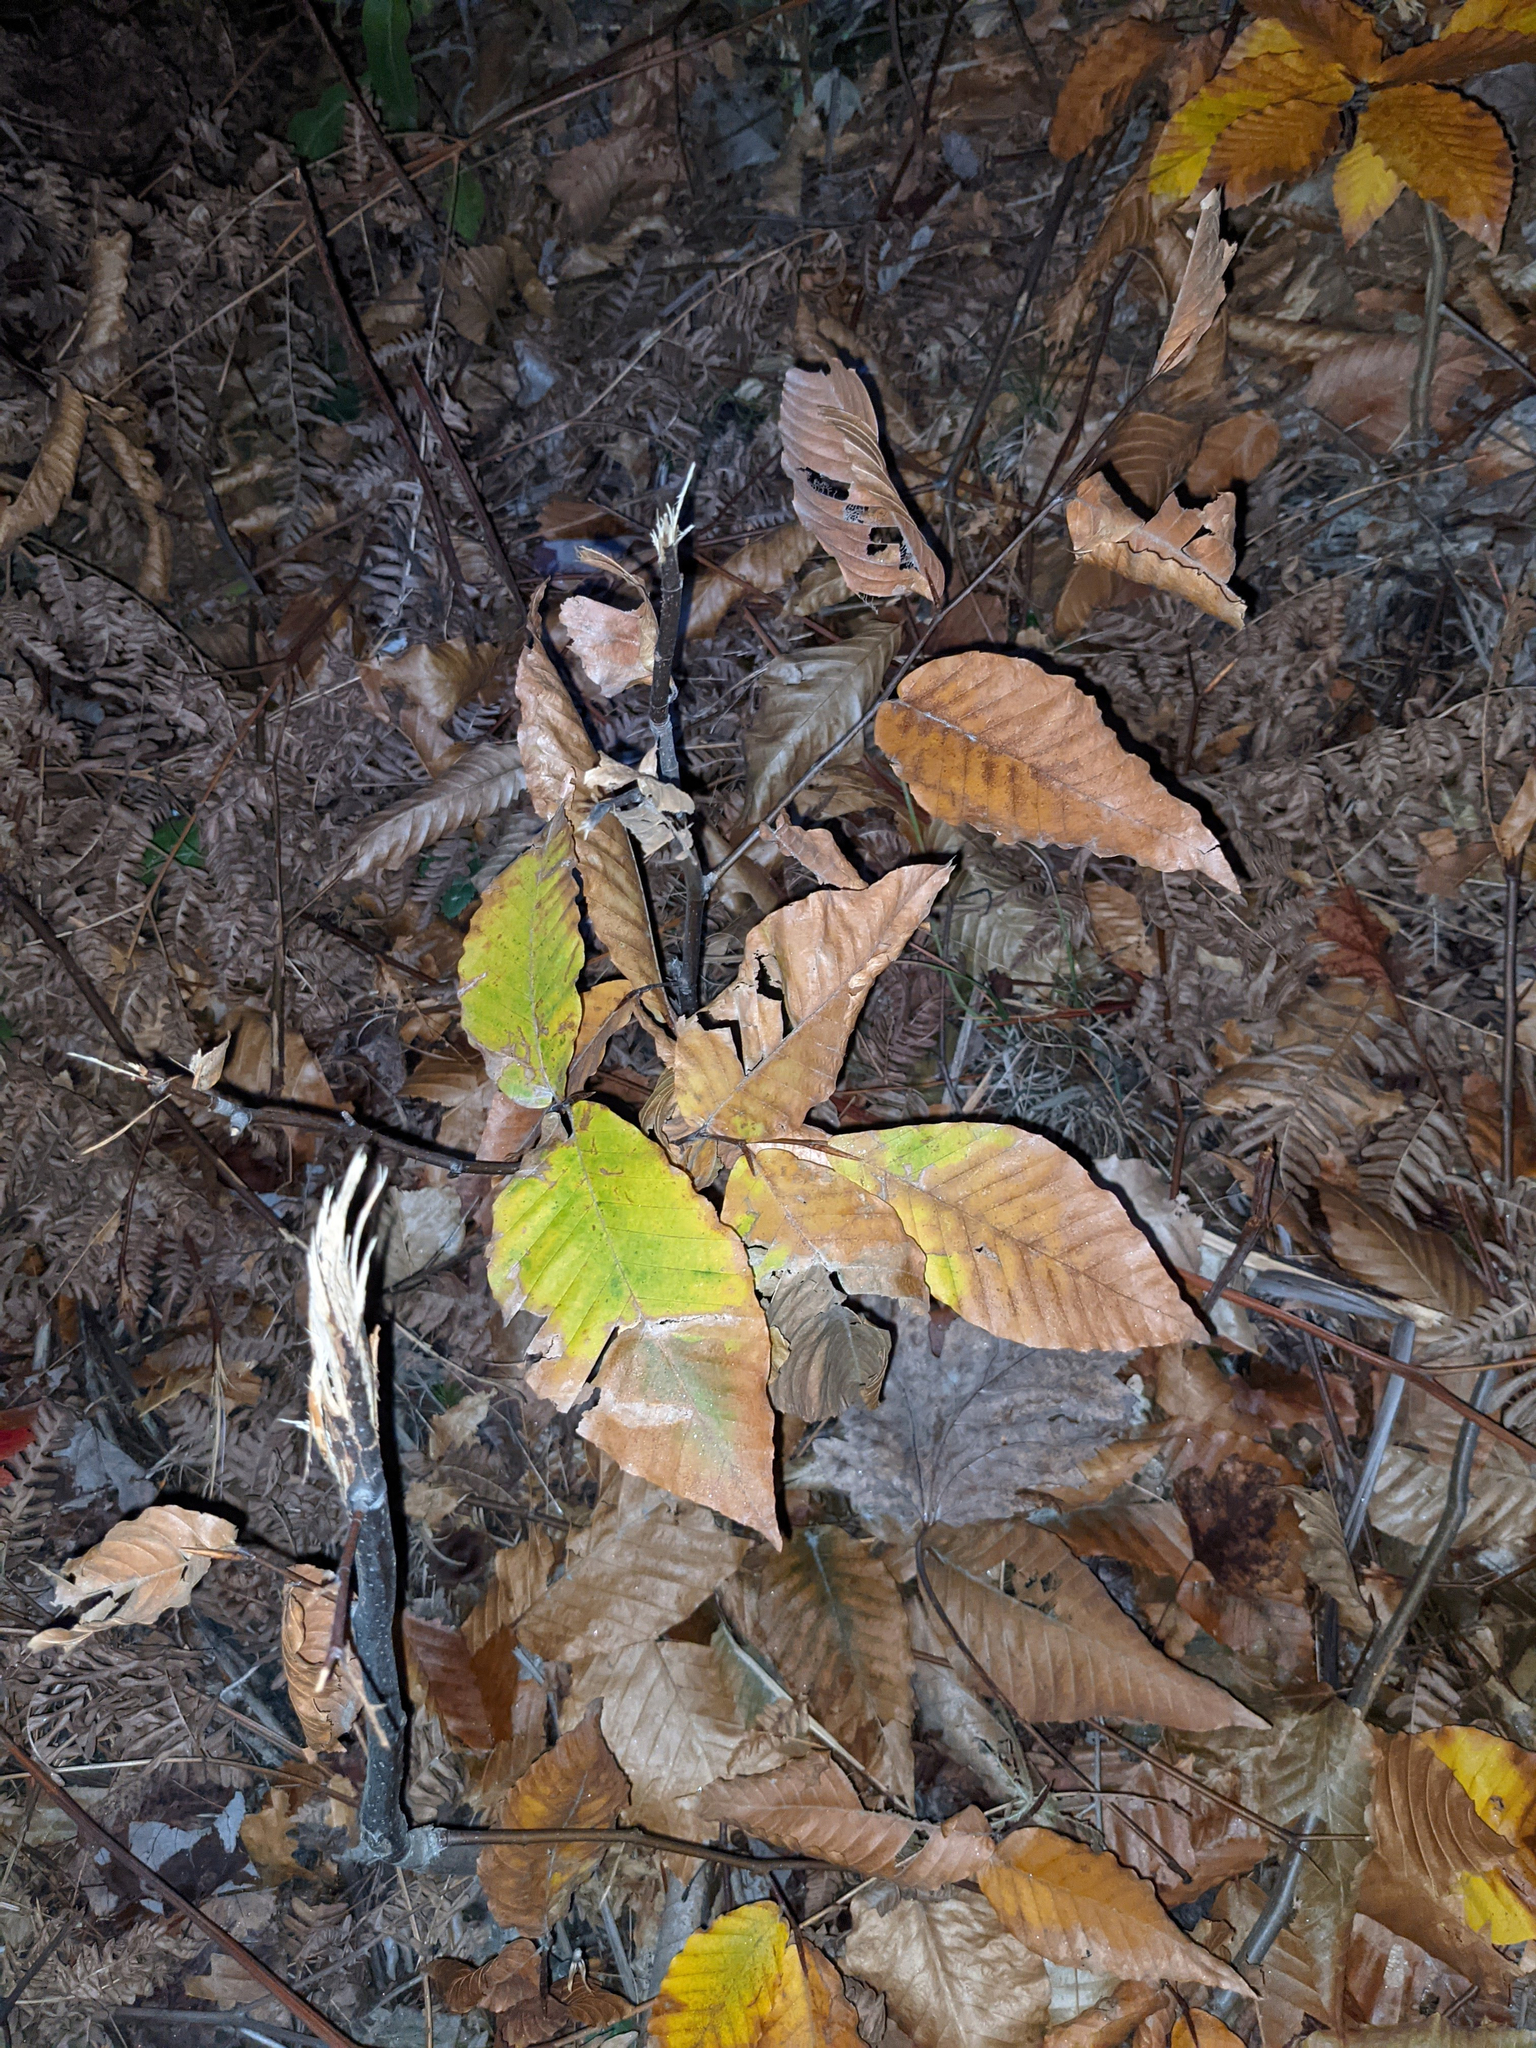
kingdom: Plantae
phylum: Tracheophyta
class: Magnoliopsida
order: Fagales
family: Fagaceae
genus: Fagus
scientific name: Fagus grandifolia
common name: American beech
